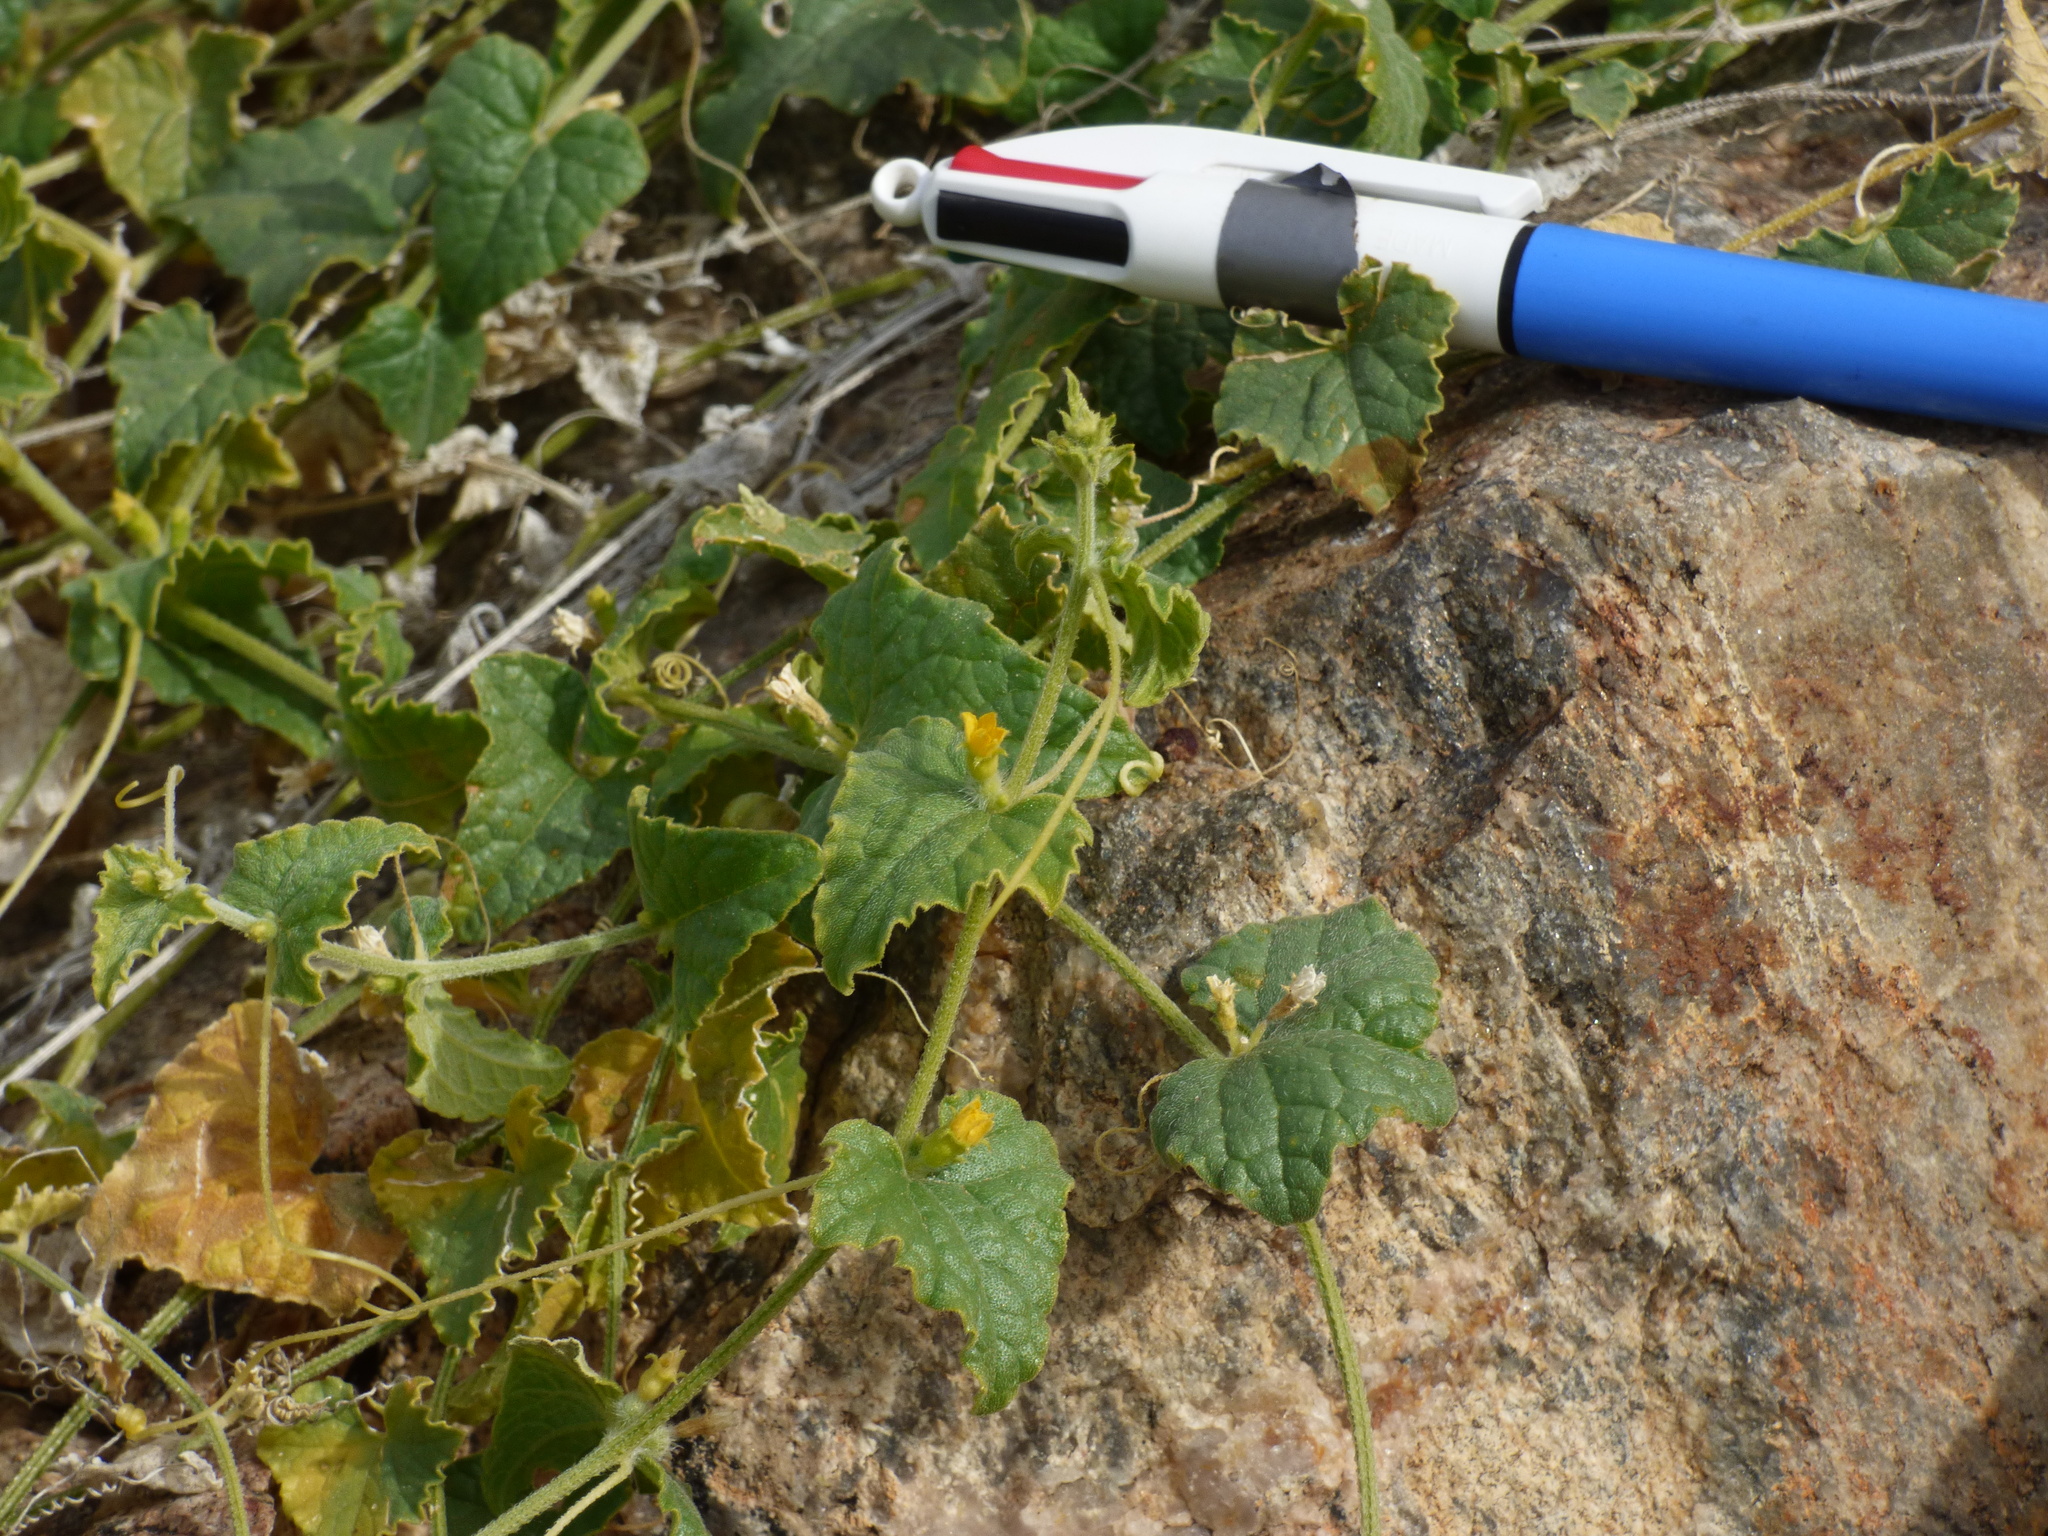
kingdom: Plantae
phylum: Tracheophyta
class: Magnoliopsida
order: Cucurbitales
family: Cucurbitaceae
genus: Cucumis
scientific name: Cucumis argenteus
